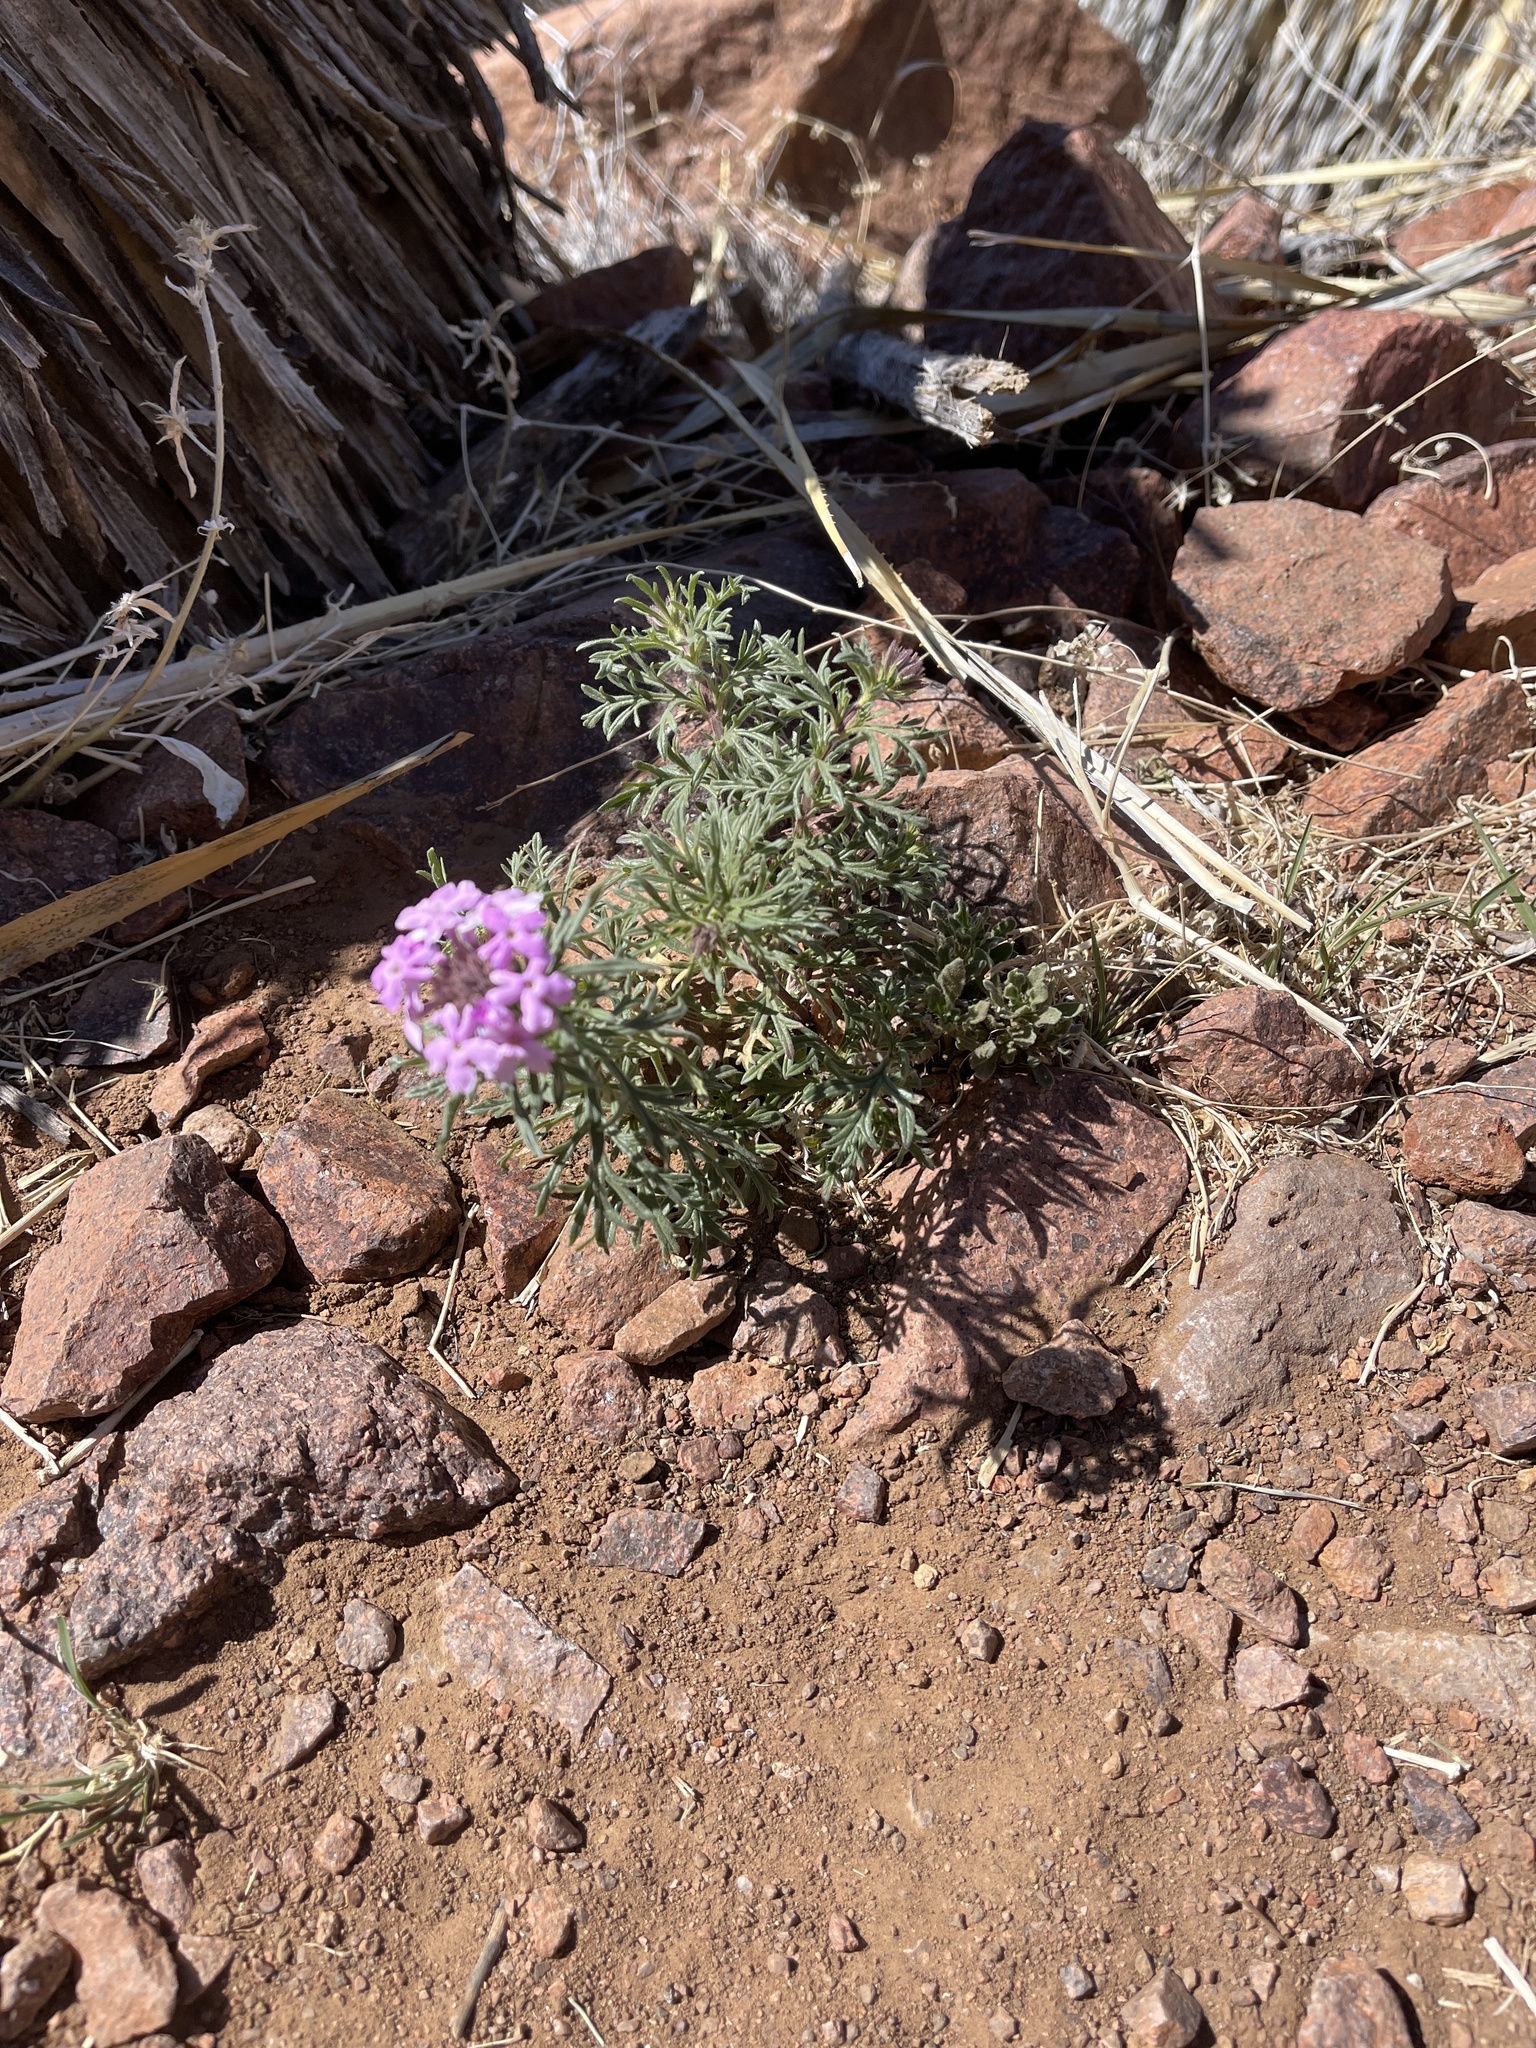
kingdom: Plantae
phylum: Tracheophyta
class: Magnoliopsida
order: Lamiales
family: Verbenaceae
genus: Verbena
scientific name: Verbena bipinnatifida
